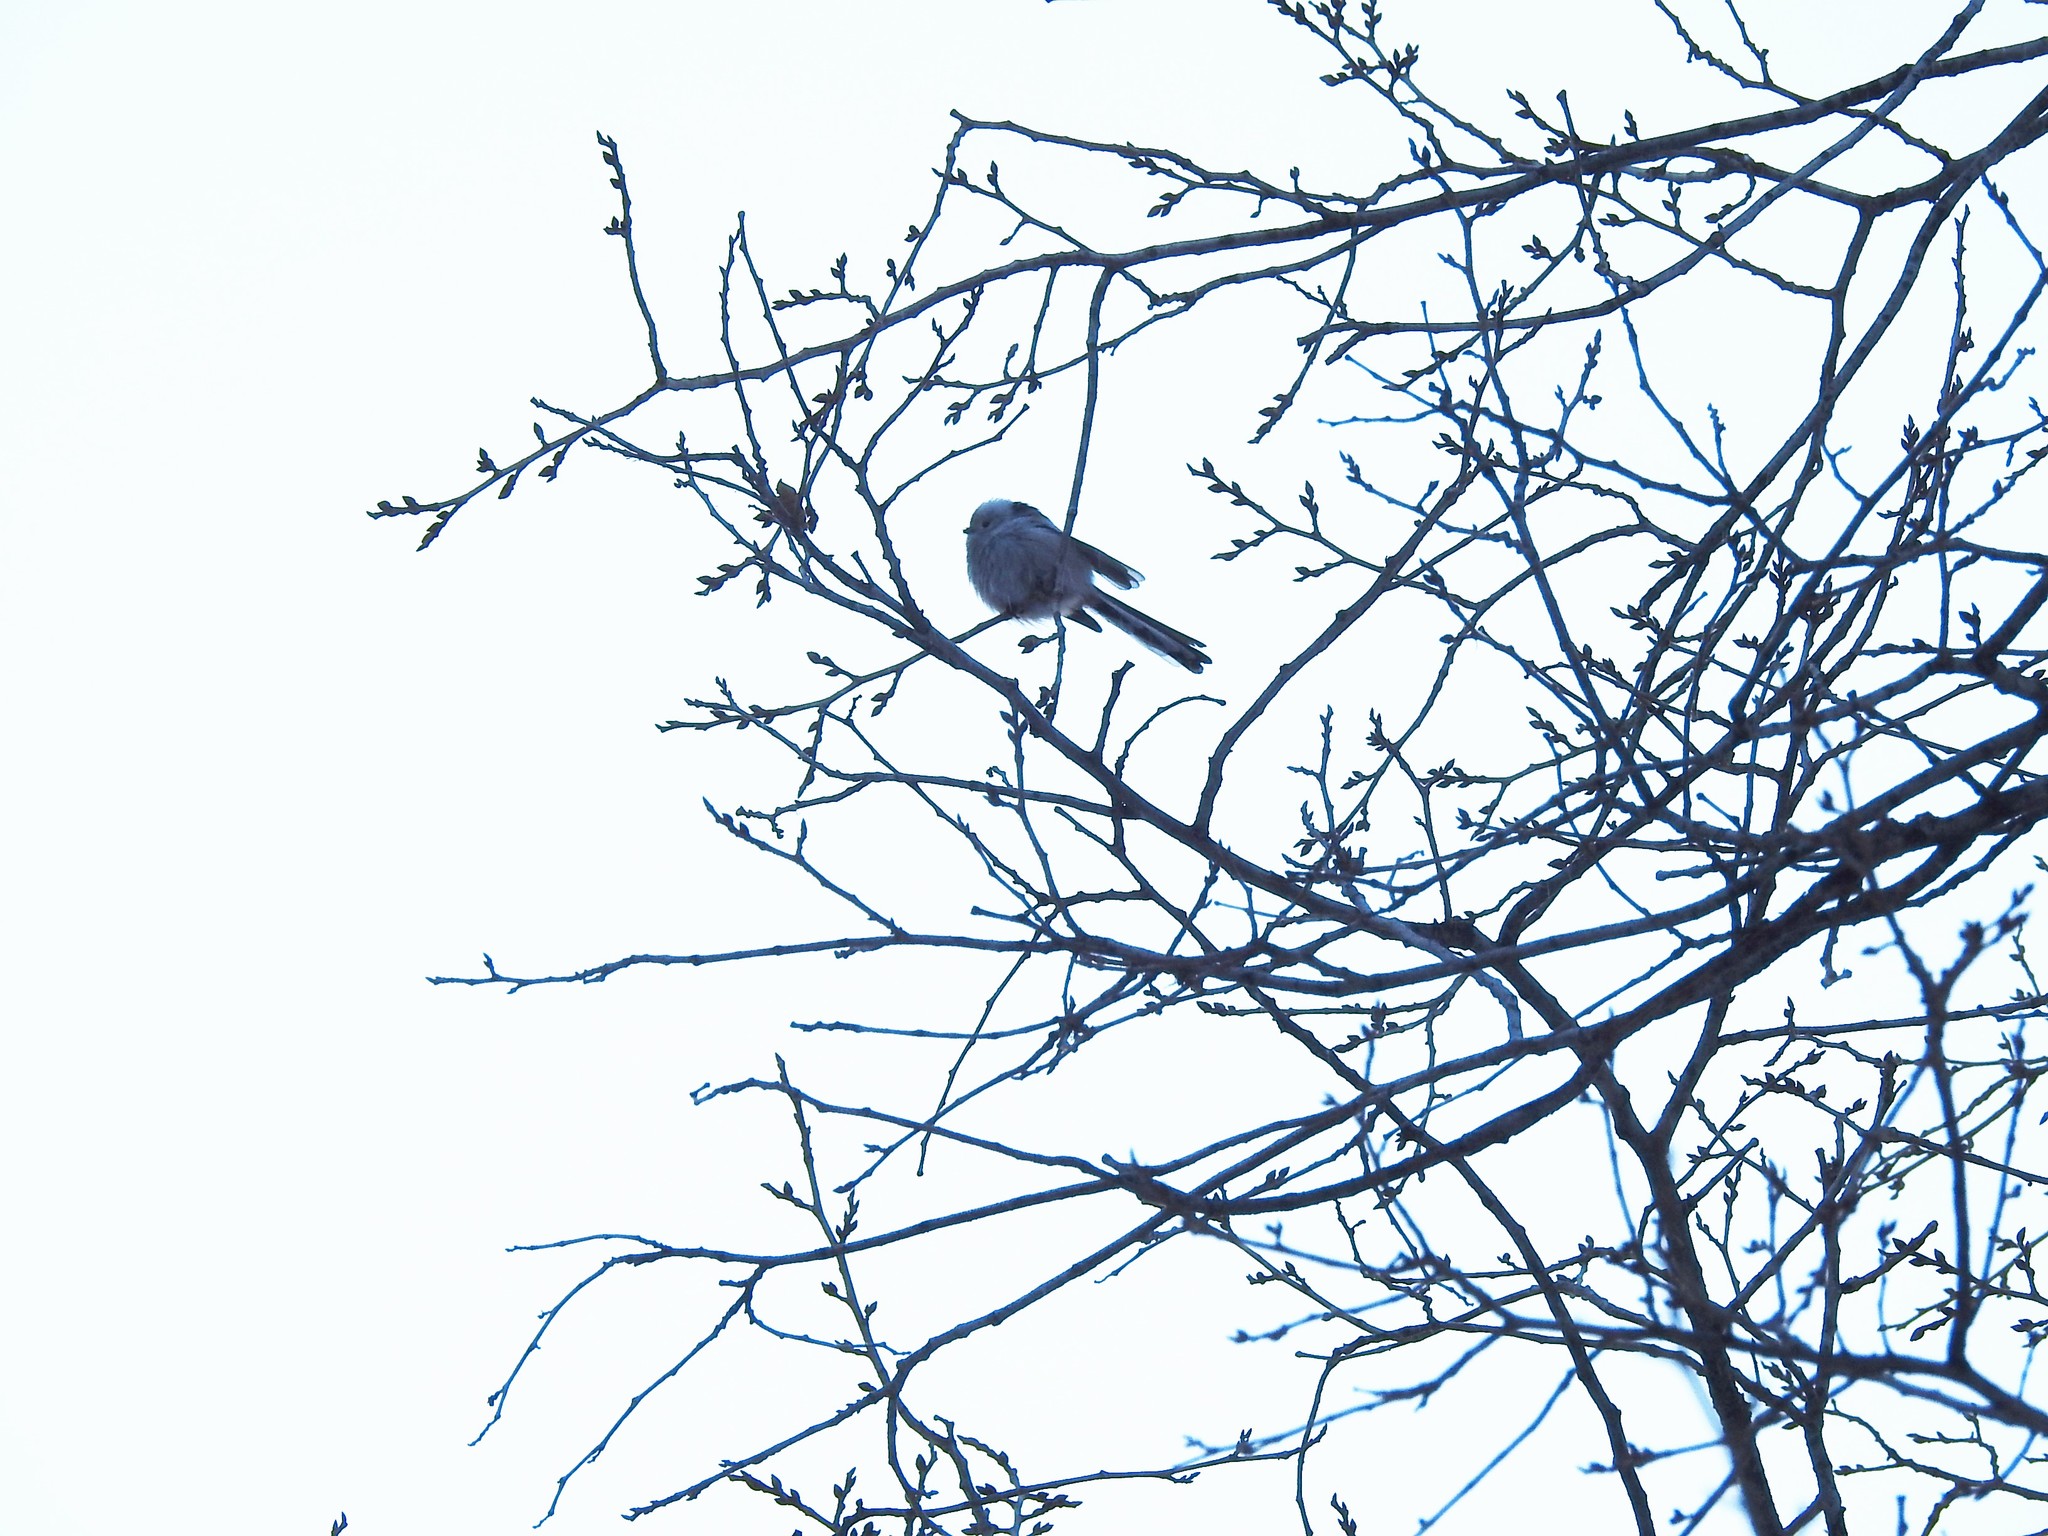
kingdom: Animalia
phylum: Chordata
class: Aves
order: Passeriformes
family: Aegithalidae
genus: Aegithalos
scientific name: Aegithalos caudatus
